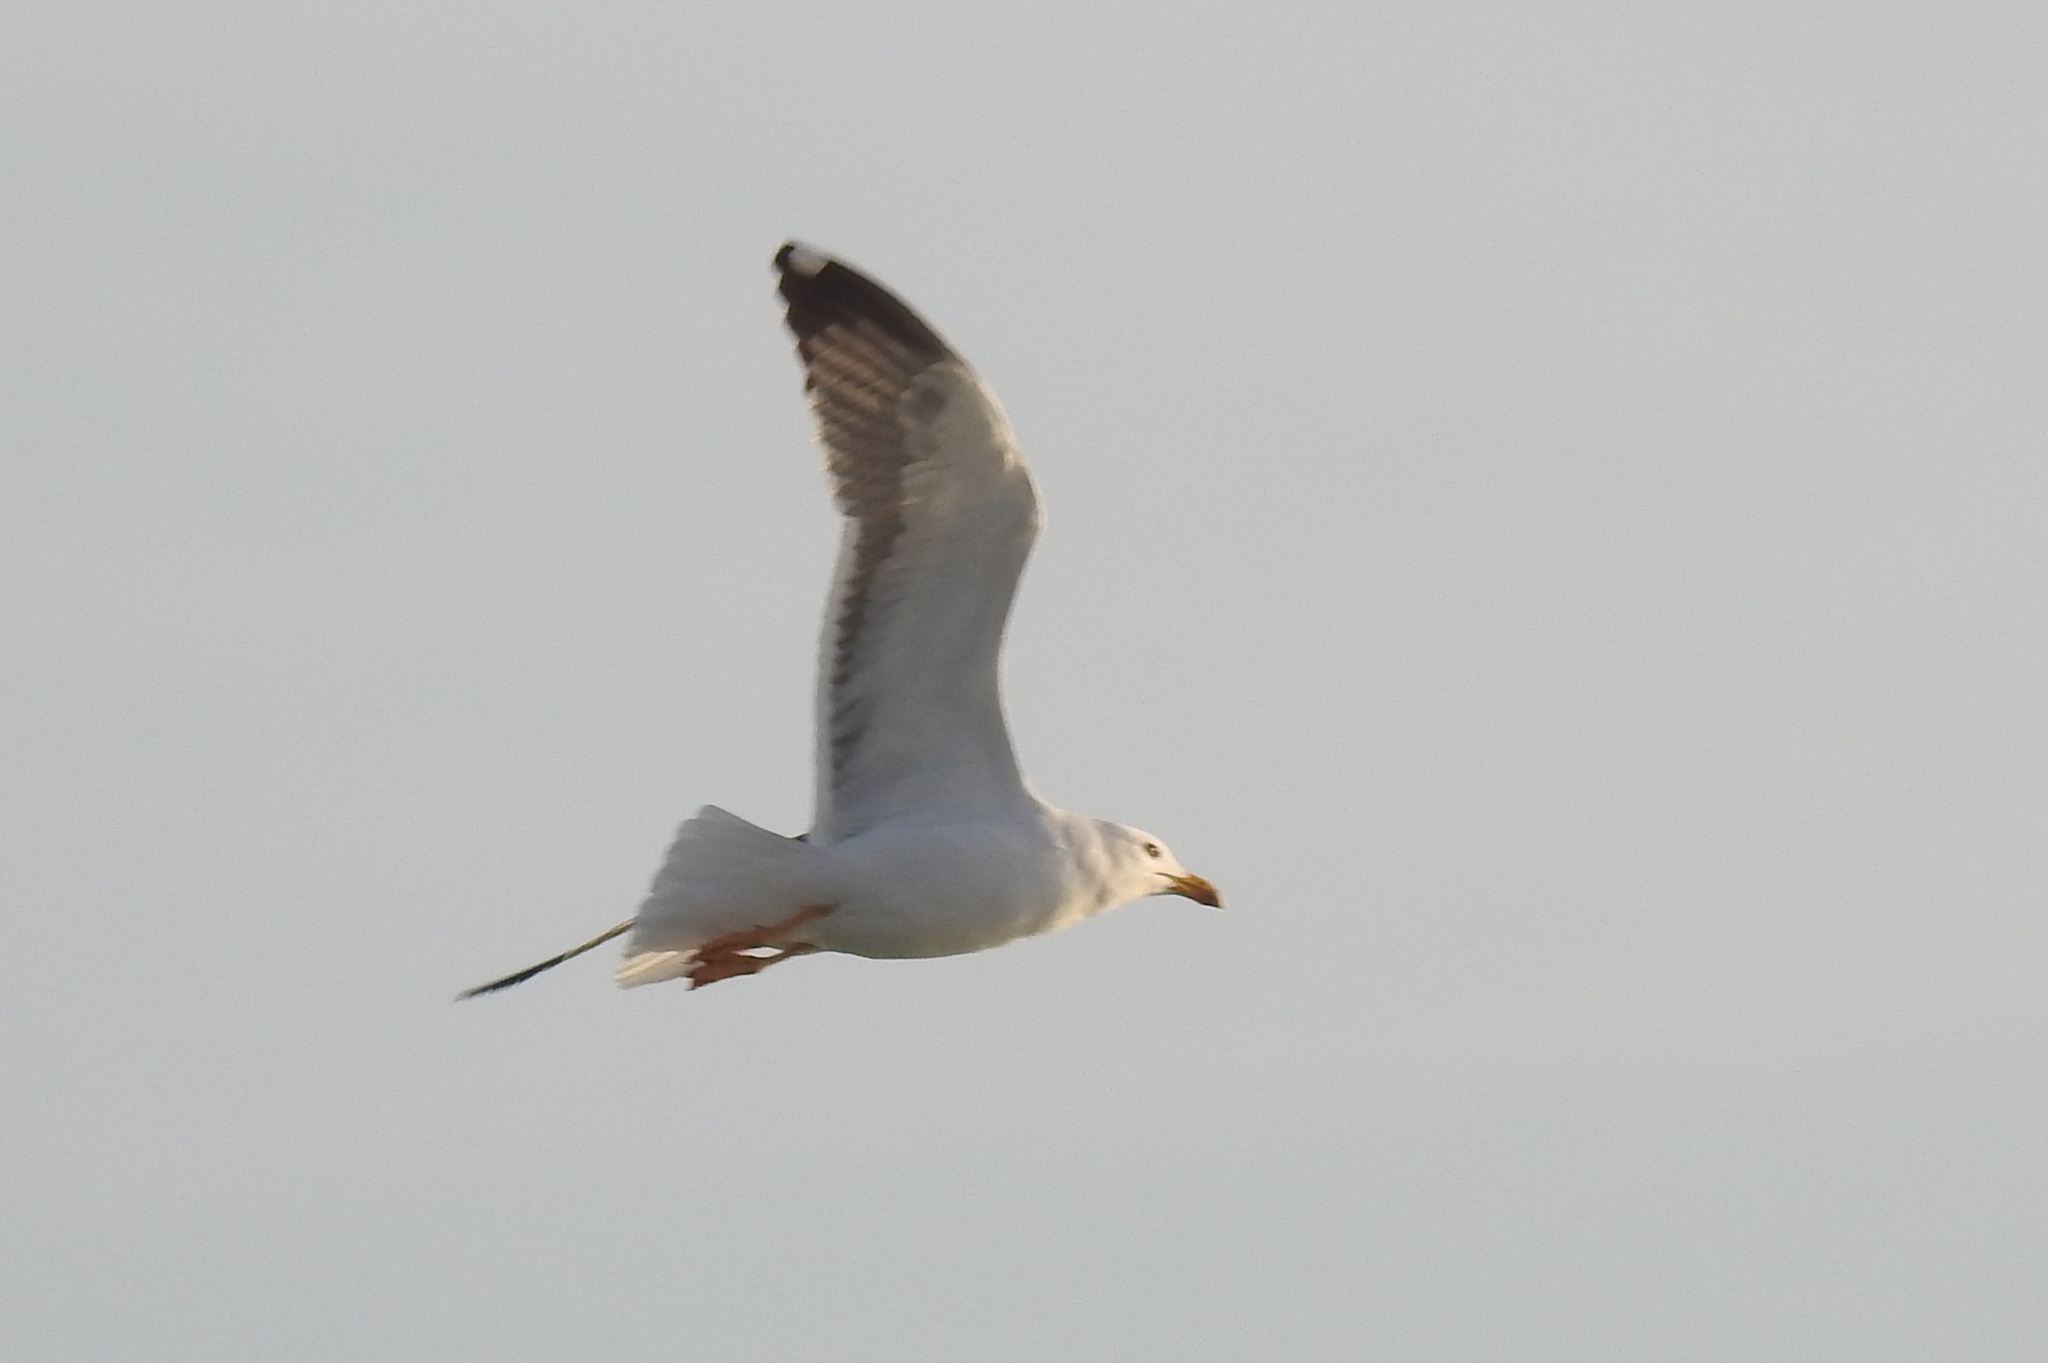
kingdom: Animalia
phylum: Chordata
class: Aves
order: Charadriiformes
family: Laridae
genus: Larus
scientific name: Larus michahellis
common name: Yellow-legged gull
